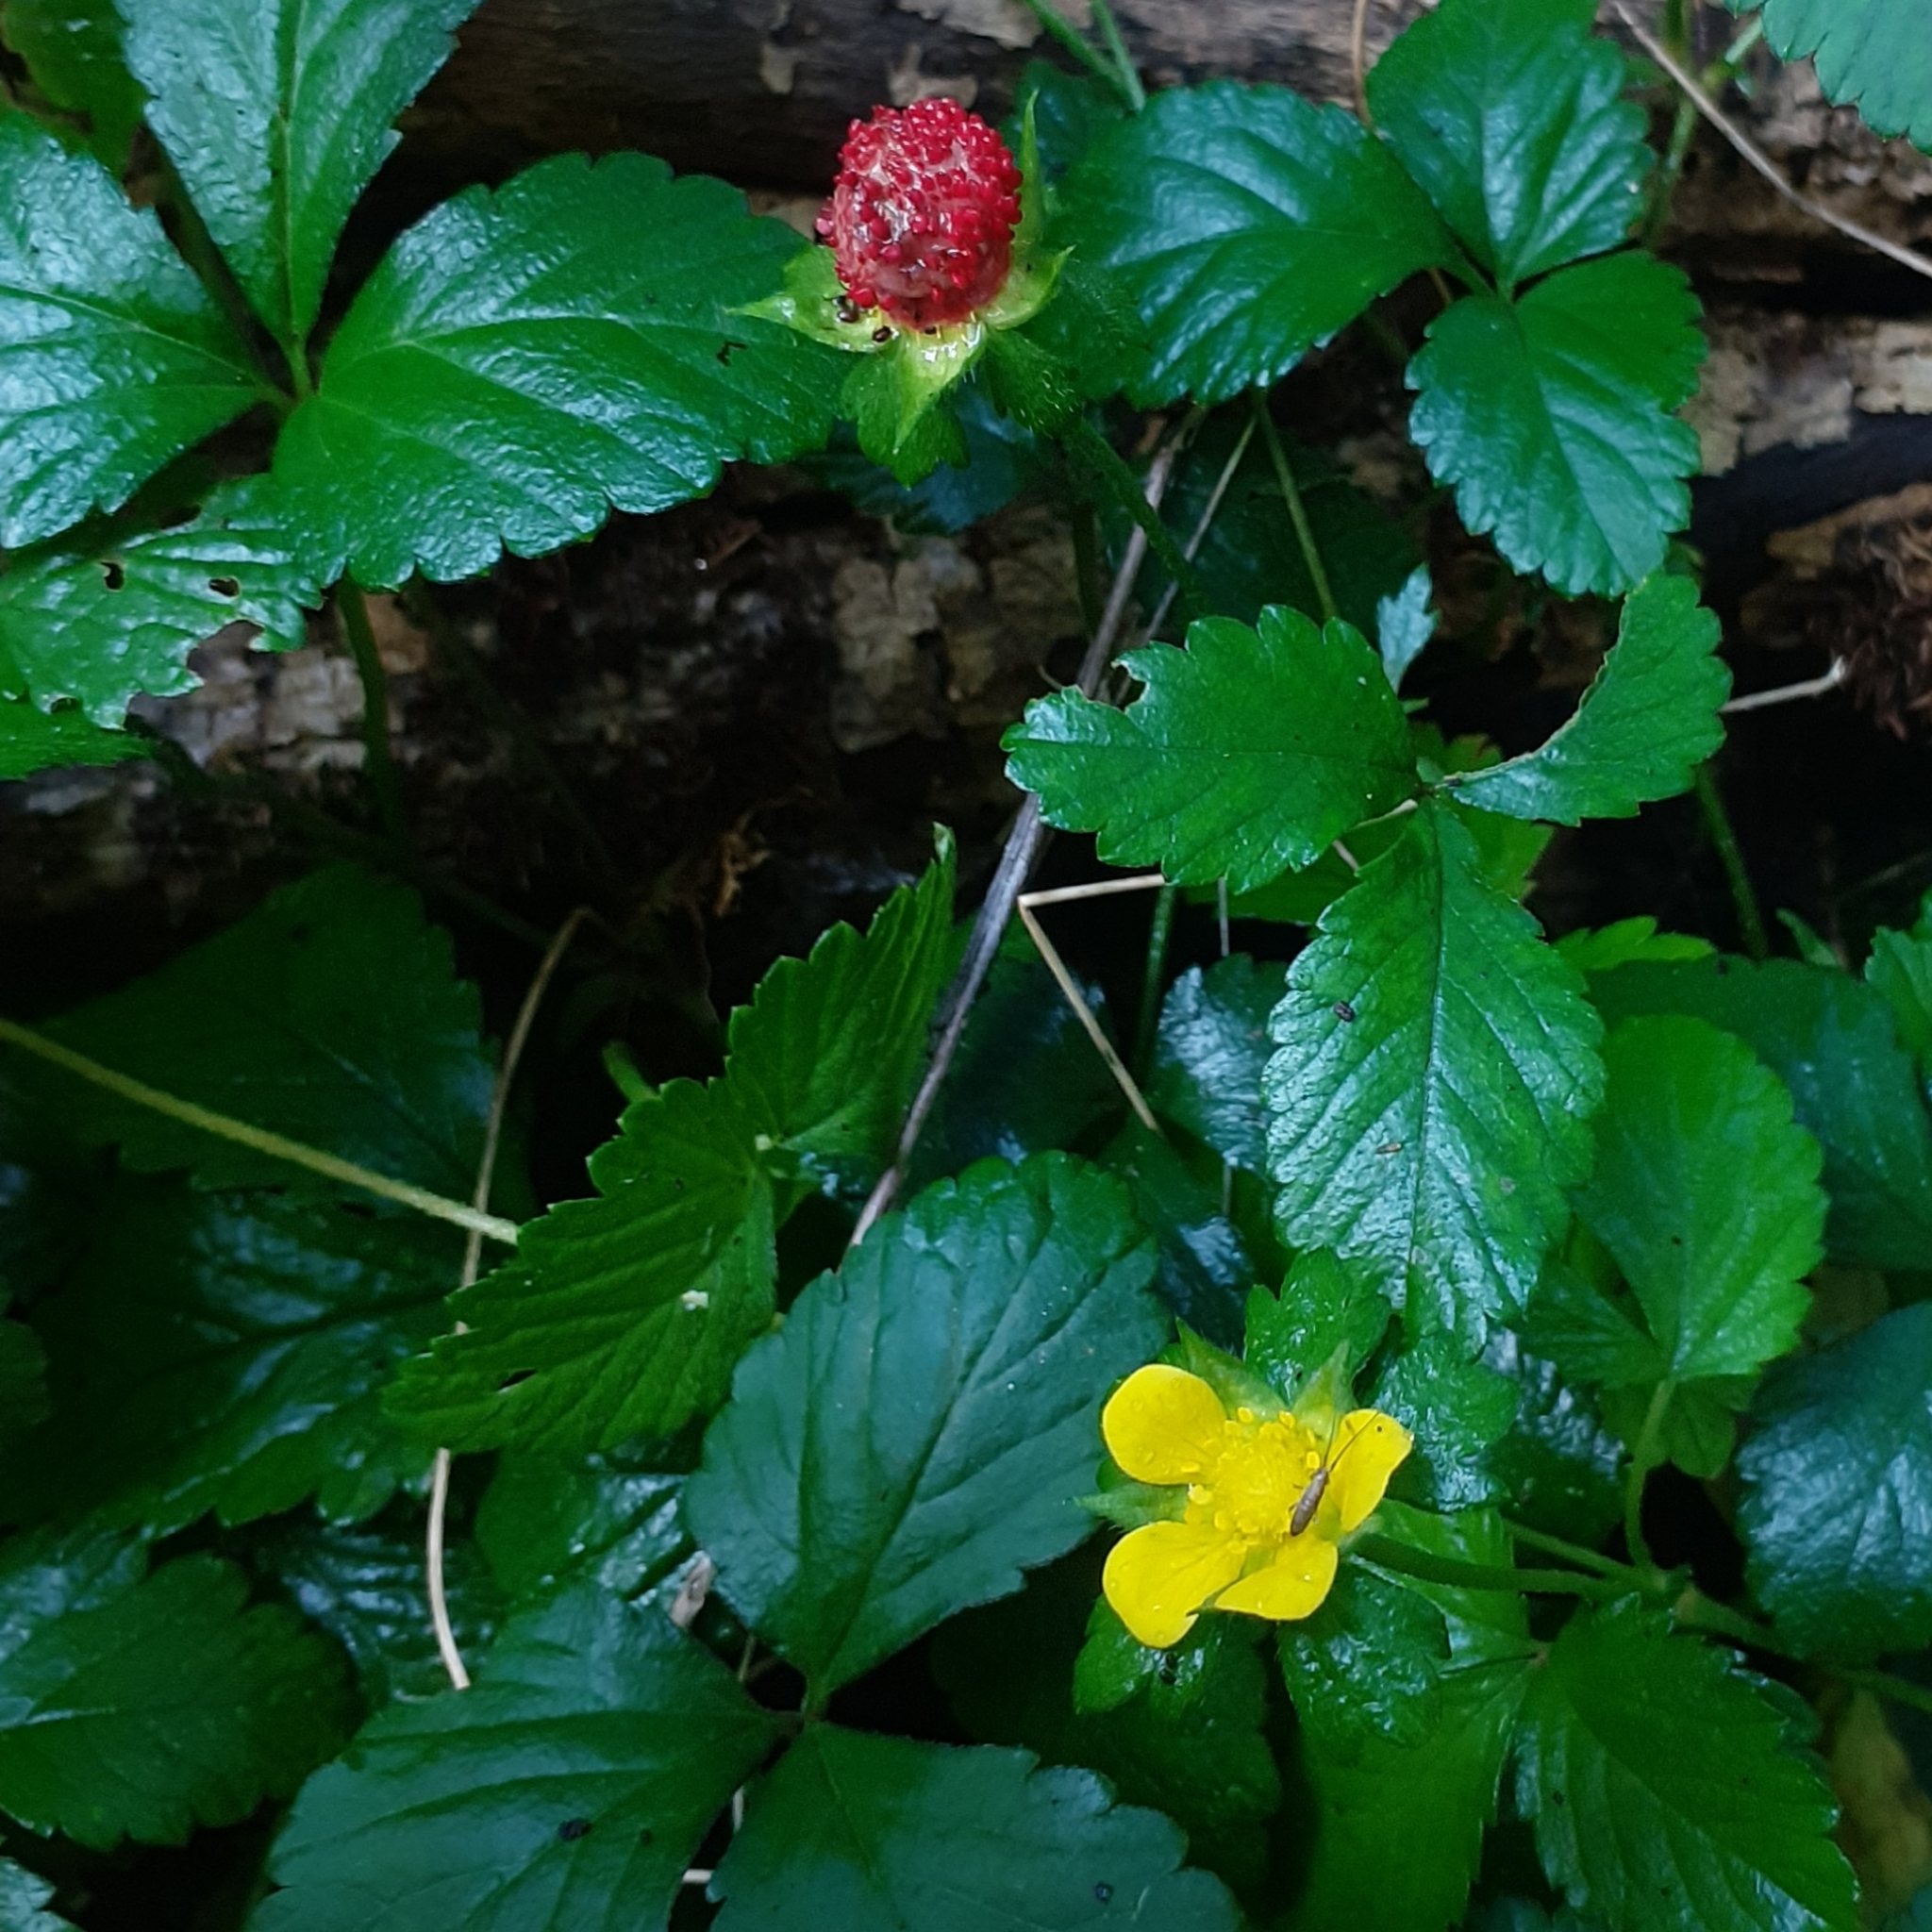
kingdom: Plantae
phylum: Tracheophyta
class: Magnoliopsida
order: Rosales
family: Rosaceae
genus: Potentilla
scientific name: Potentilla indica
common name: Yellow-flowered strawberry
